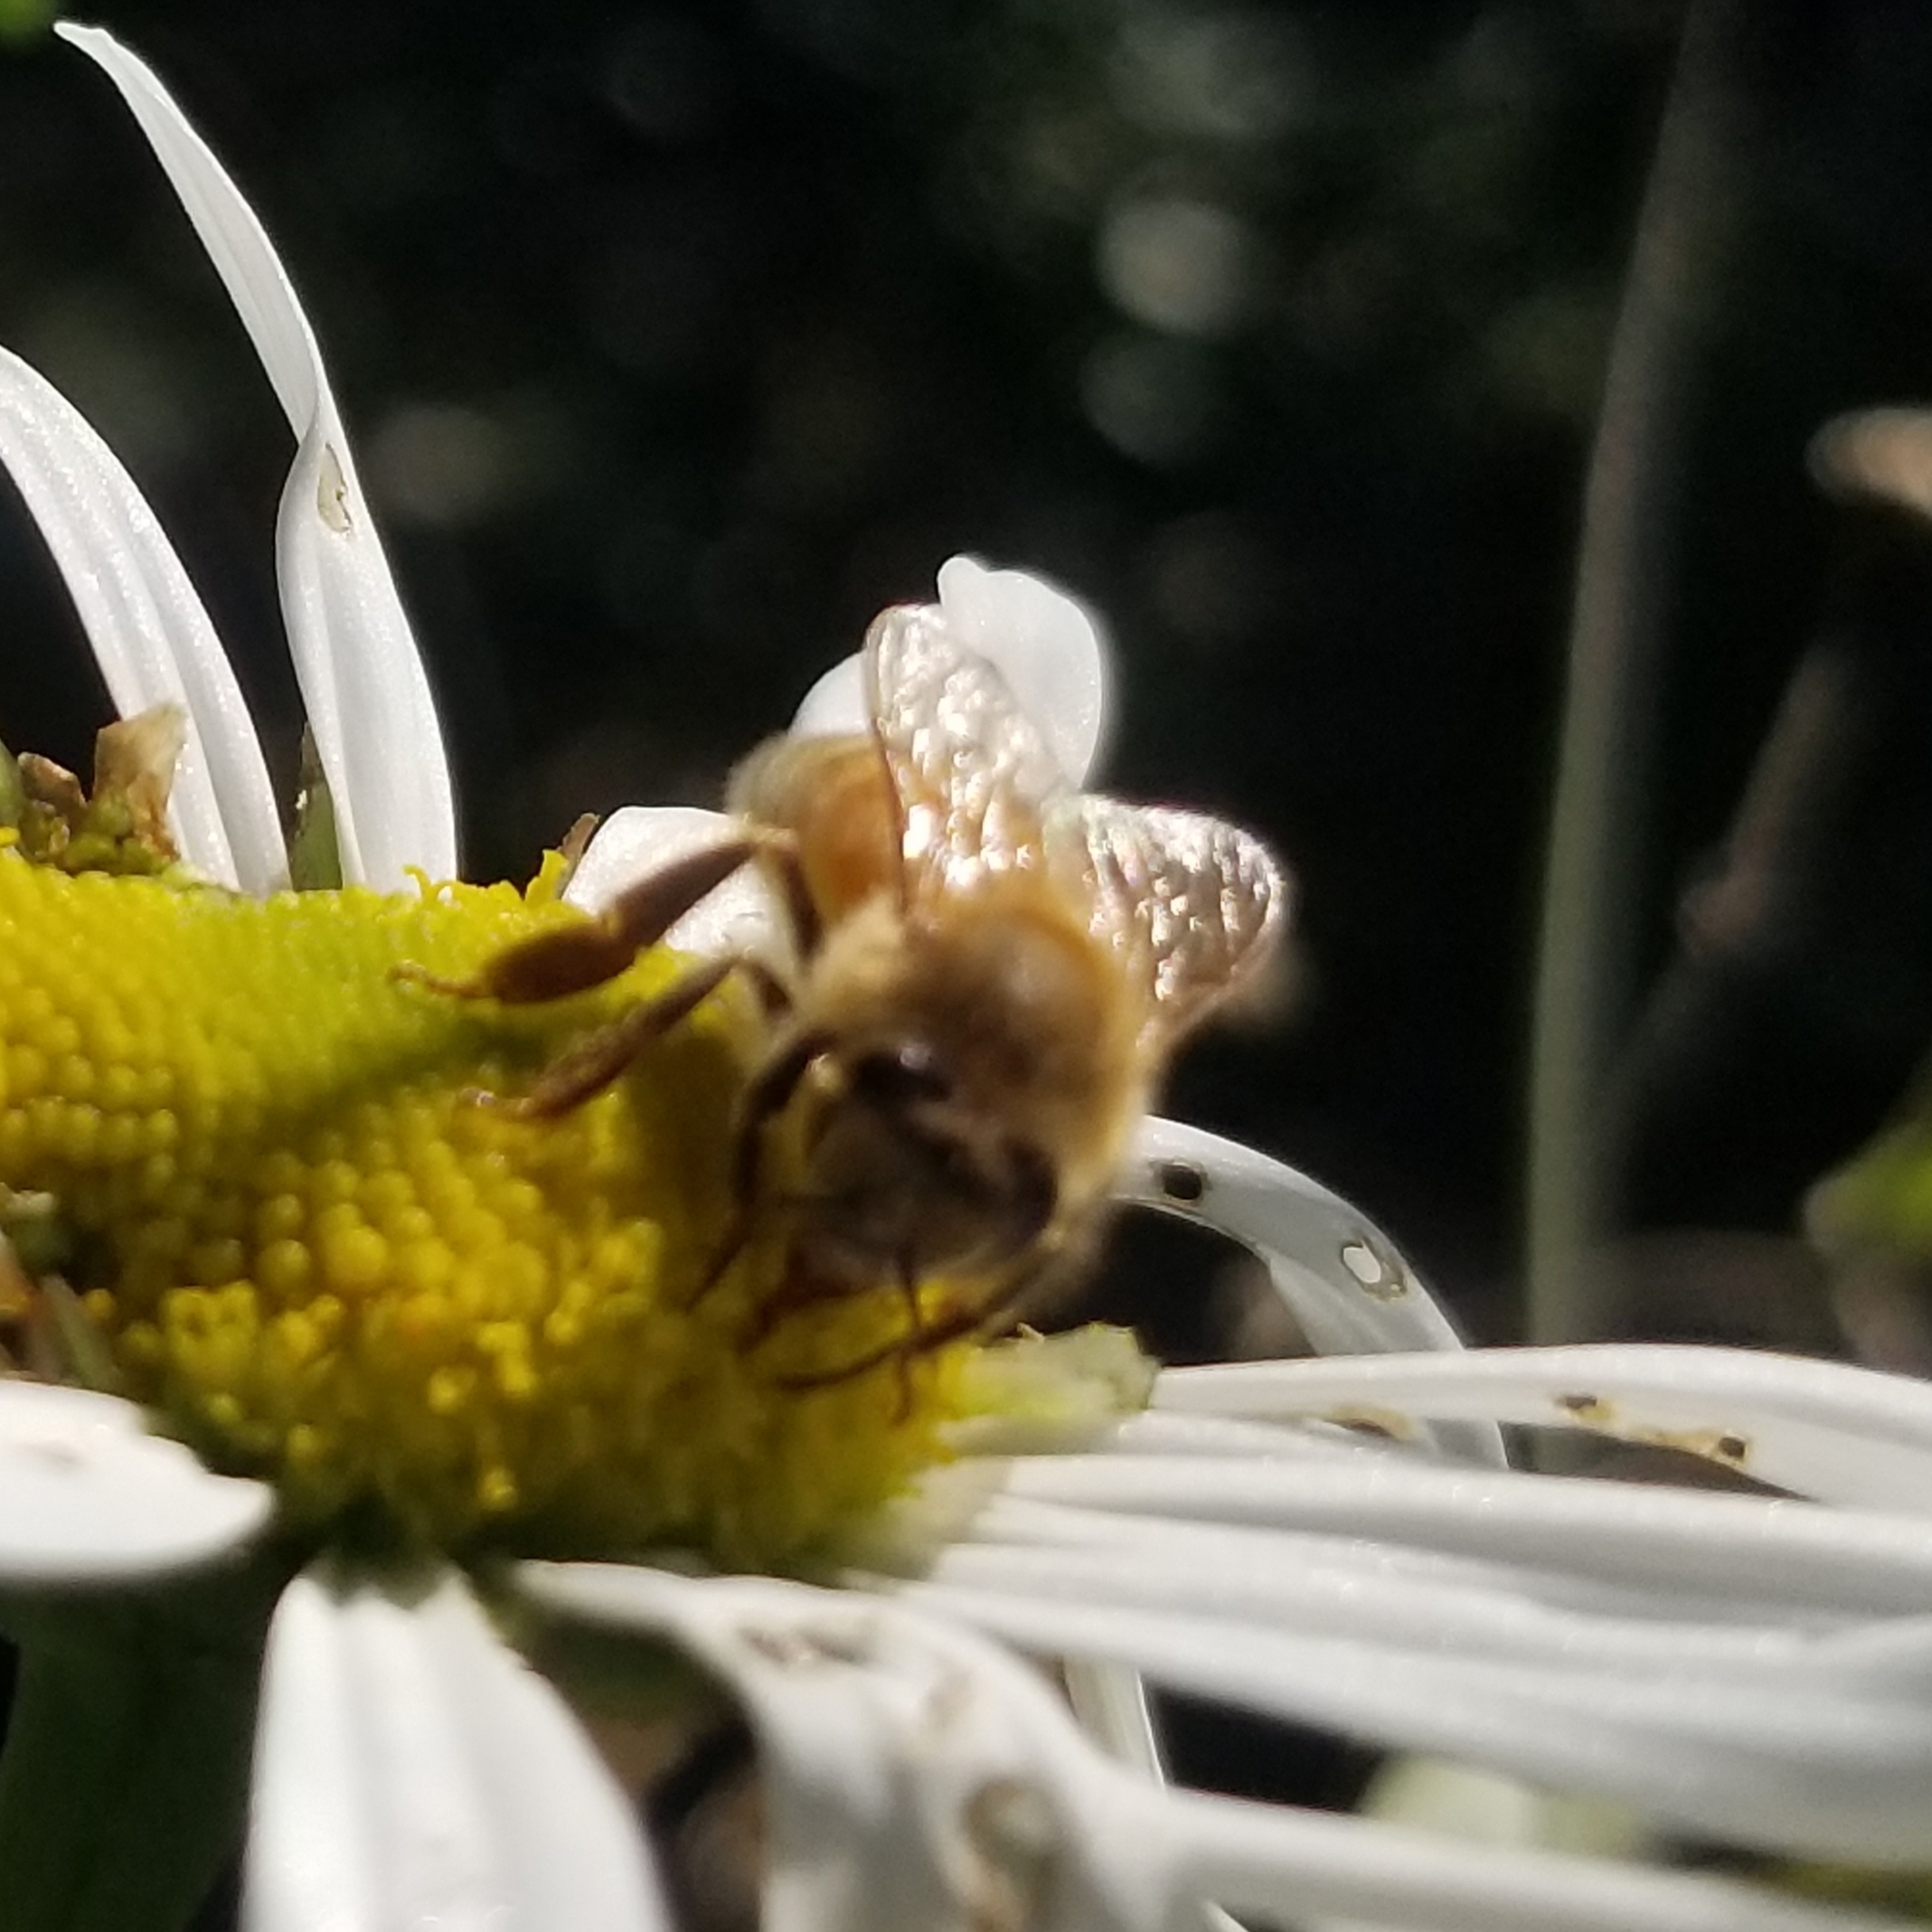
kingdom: Animalia
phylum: Arthropoda
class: Insecta
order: Hymenoptera
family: Apidae
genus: Apis
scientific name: Apis mellifera
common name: Honey bee
